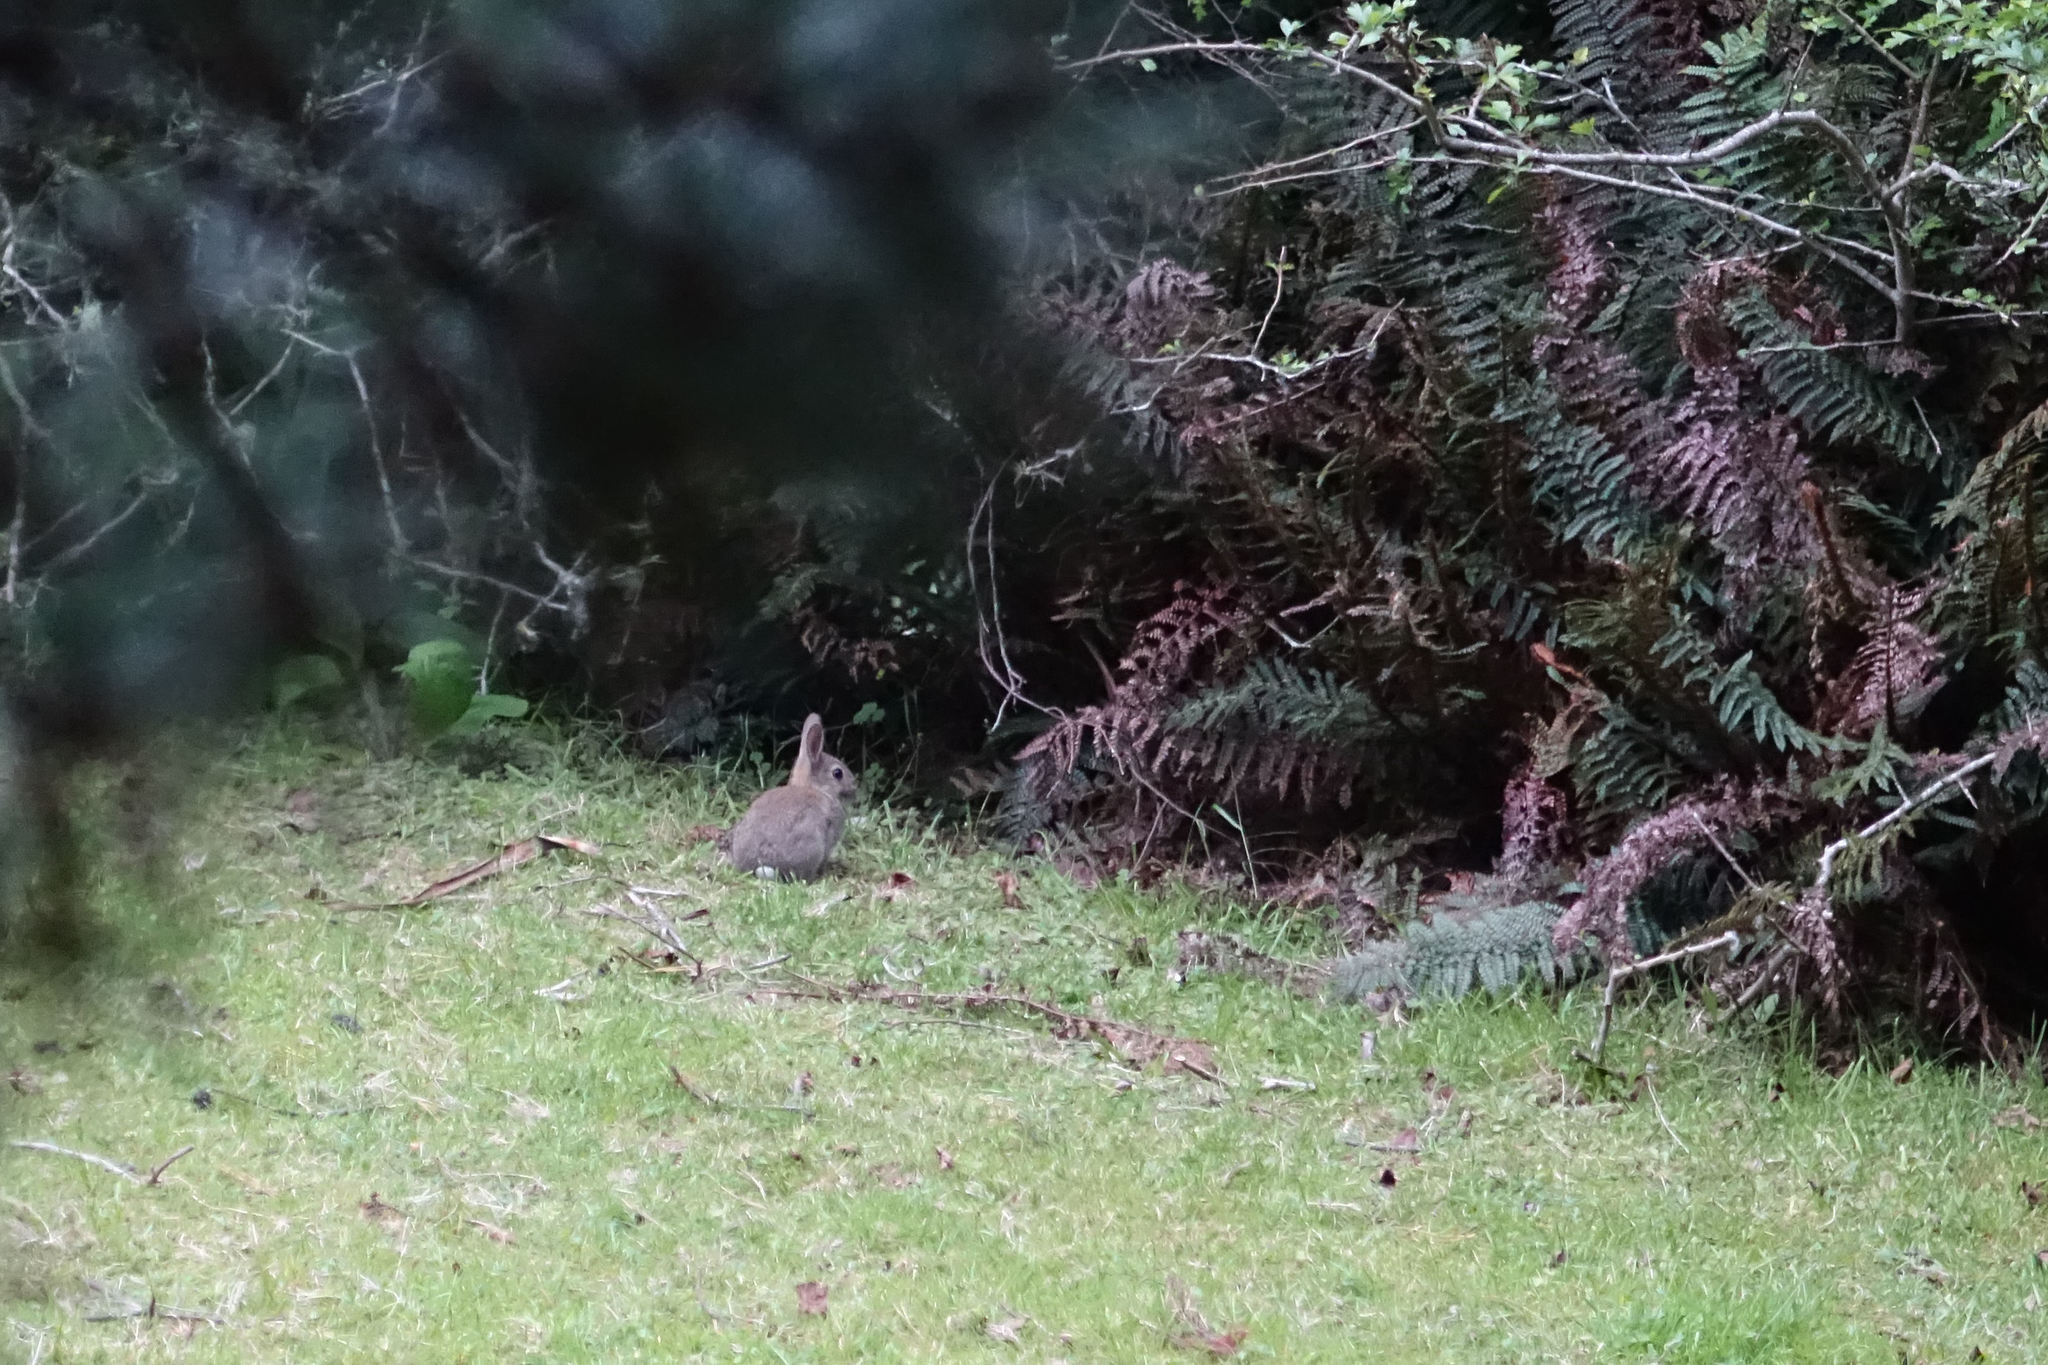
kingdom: Animalia
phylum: Chordata
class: Mammalia
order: Lagomorpha
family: Leporidae
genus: Oryctolagus
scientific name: Oryctolagus cuniculus
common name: European rabbit
